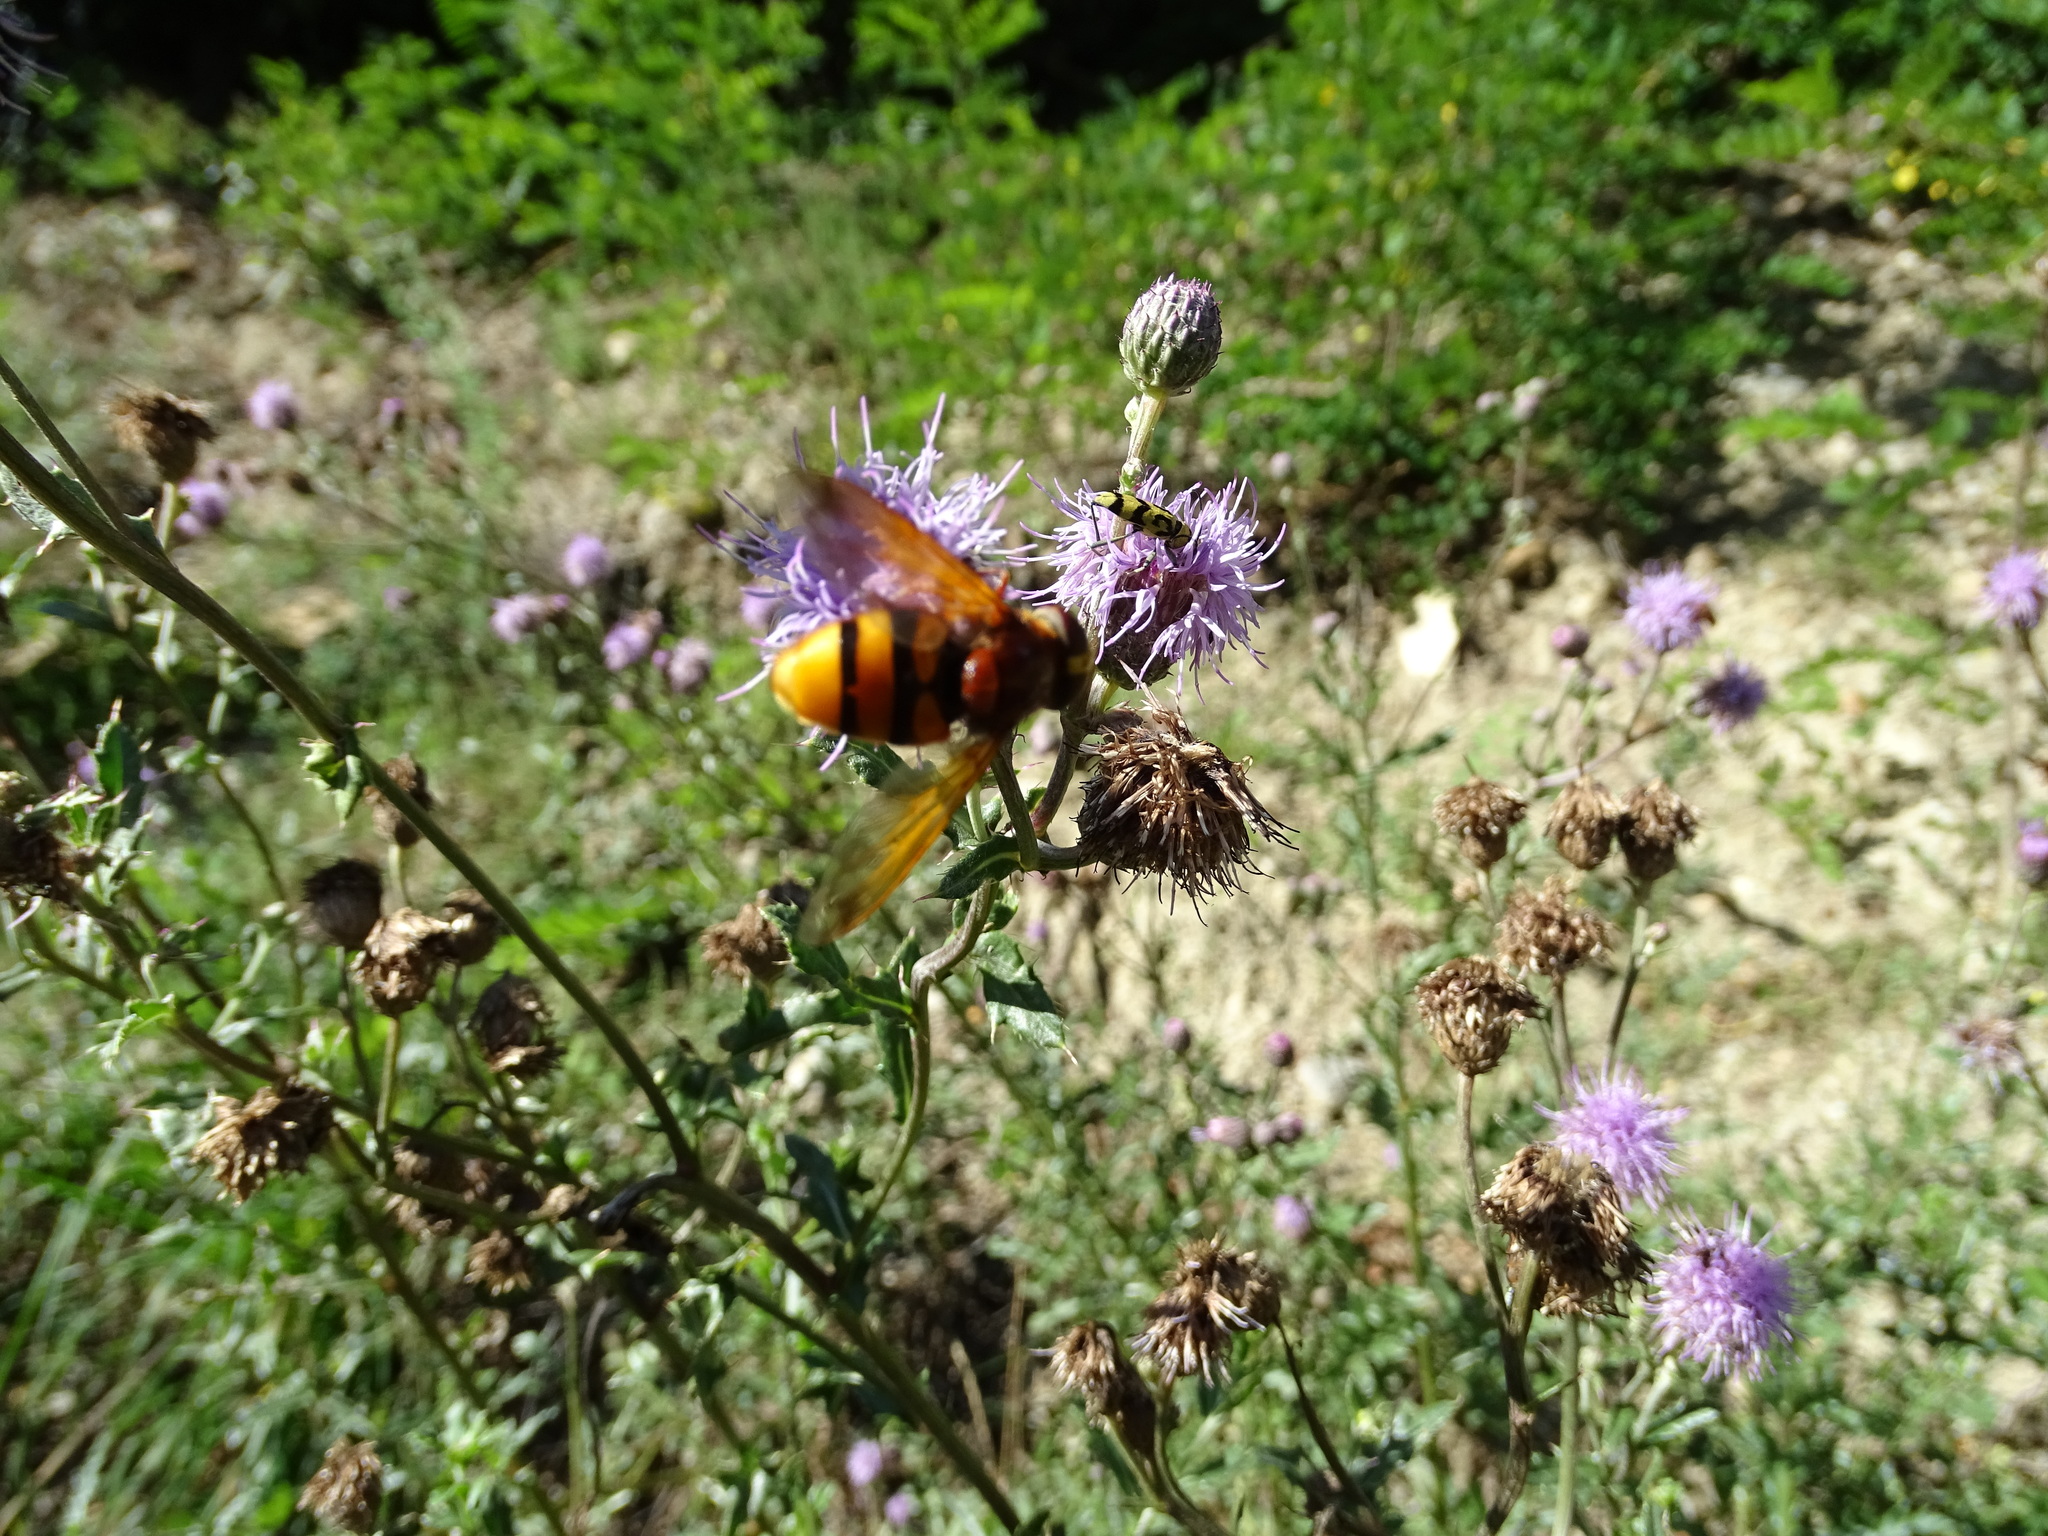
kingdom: Animalia
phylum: Arthropoda
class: Insecta
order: Diptera
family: Syrphidae
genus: Volucella
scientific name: Volucella zonaria
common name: Hornet hoverfly
